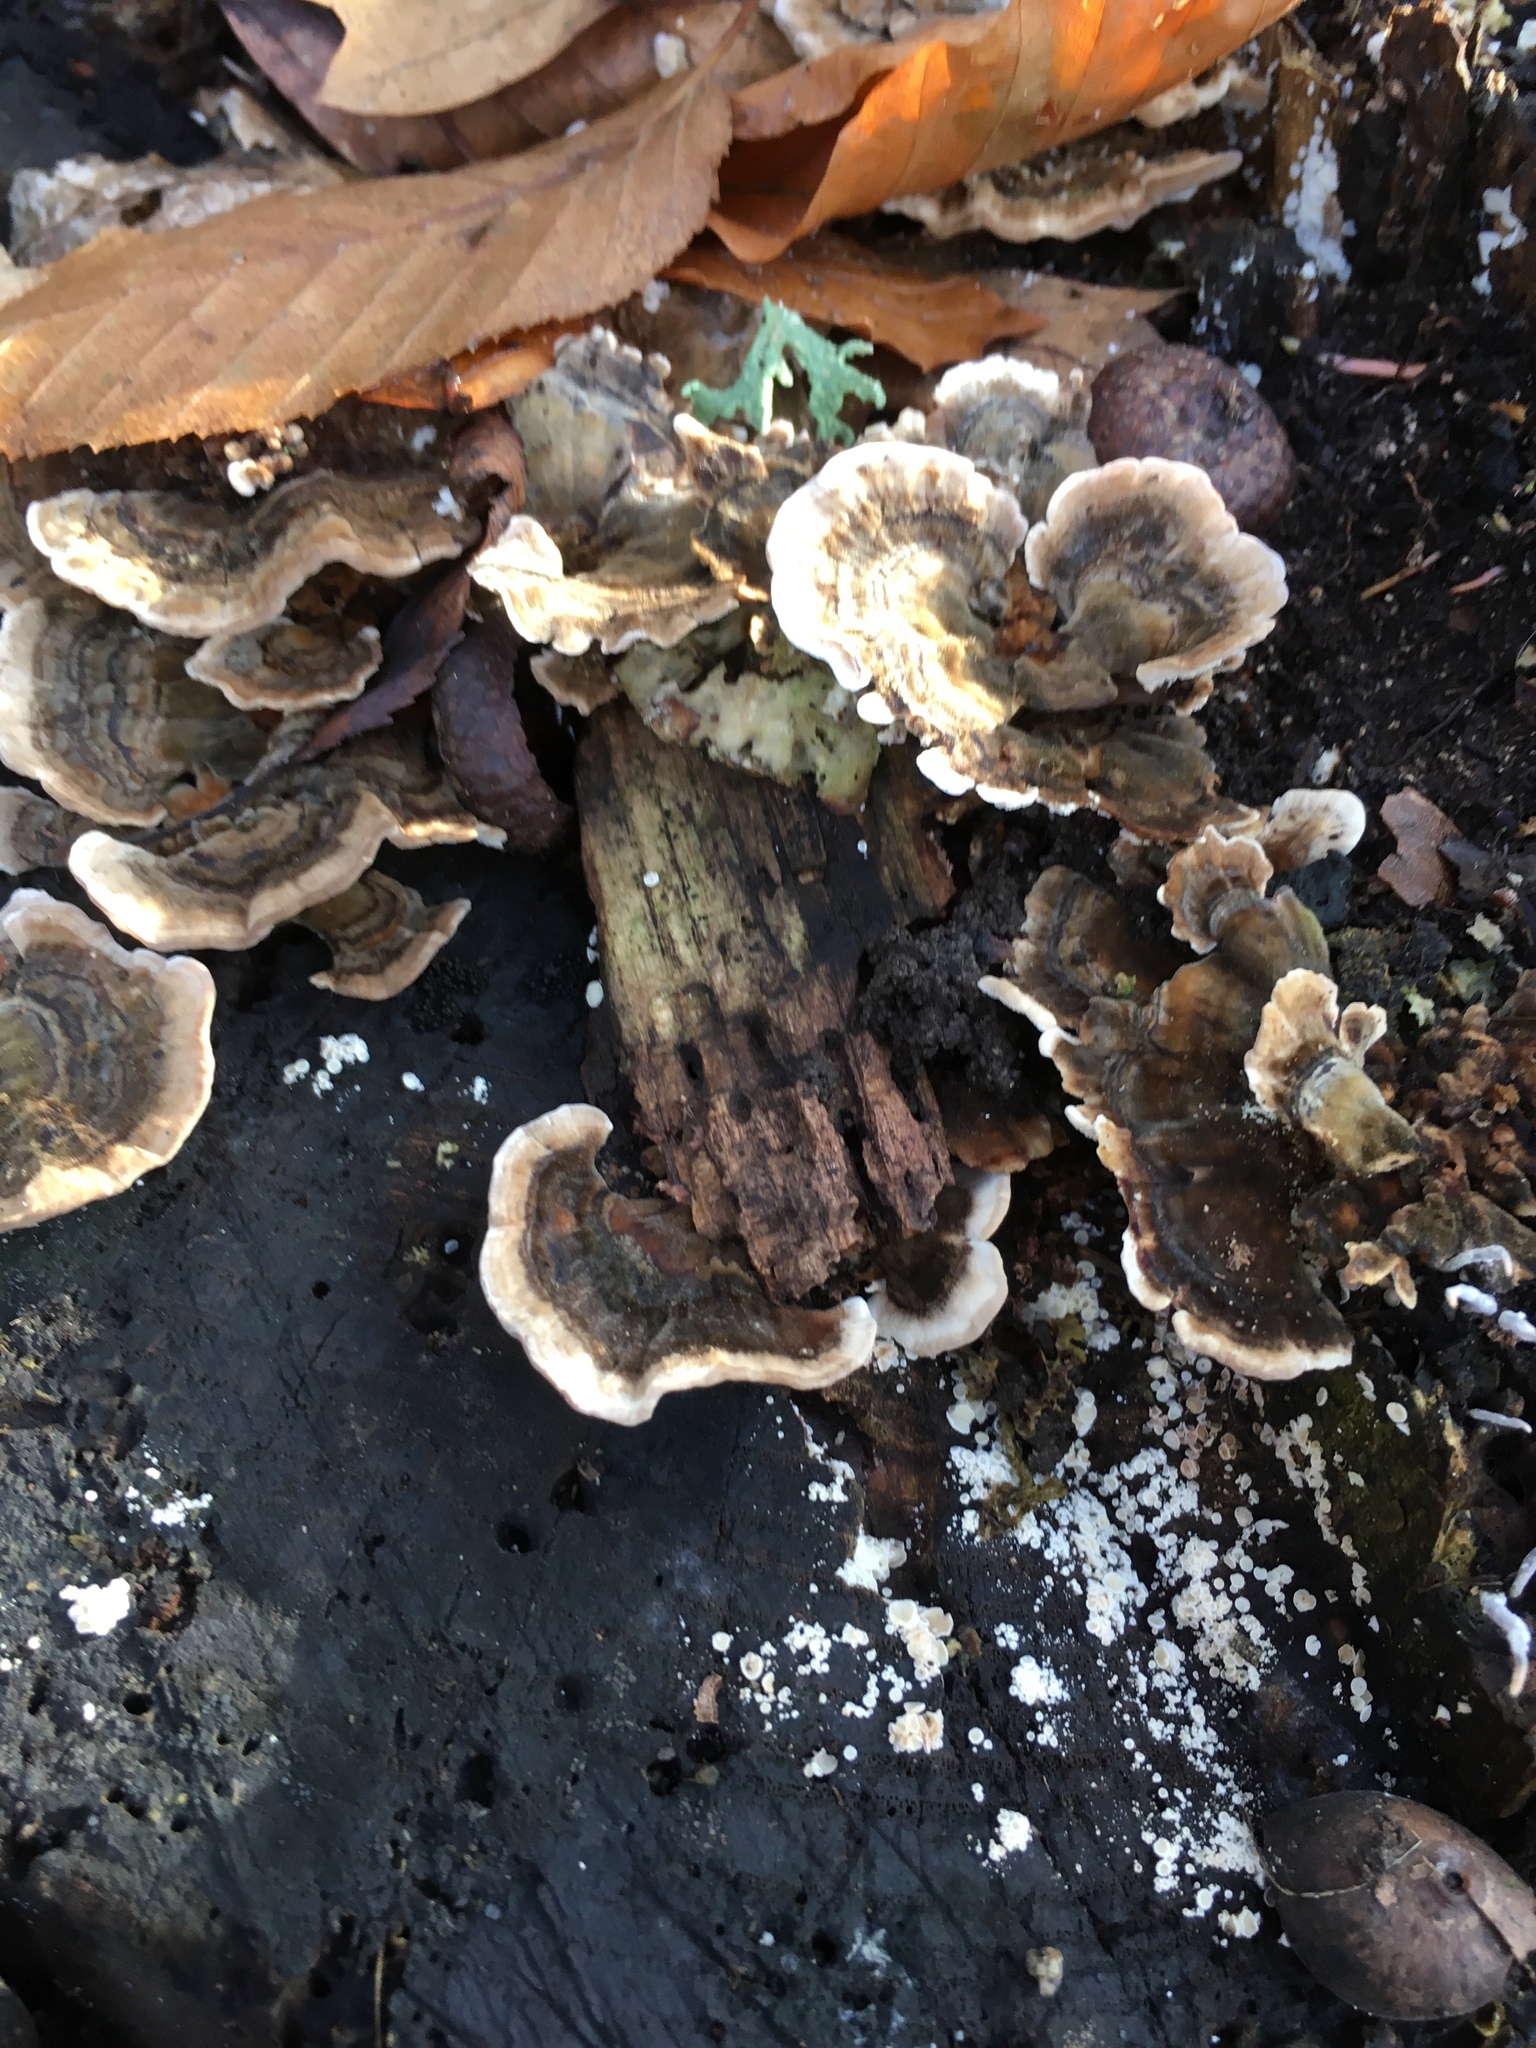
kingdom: Fungi
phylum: Basidiomycota
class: Agaricomycetes
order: Polyporales
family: Polyporaceae
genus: Trametes
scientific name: Trametes versicolor
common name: Turkeytail
